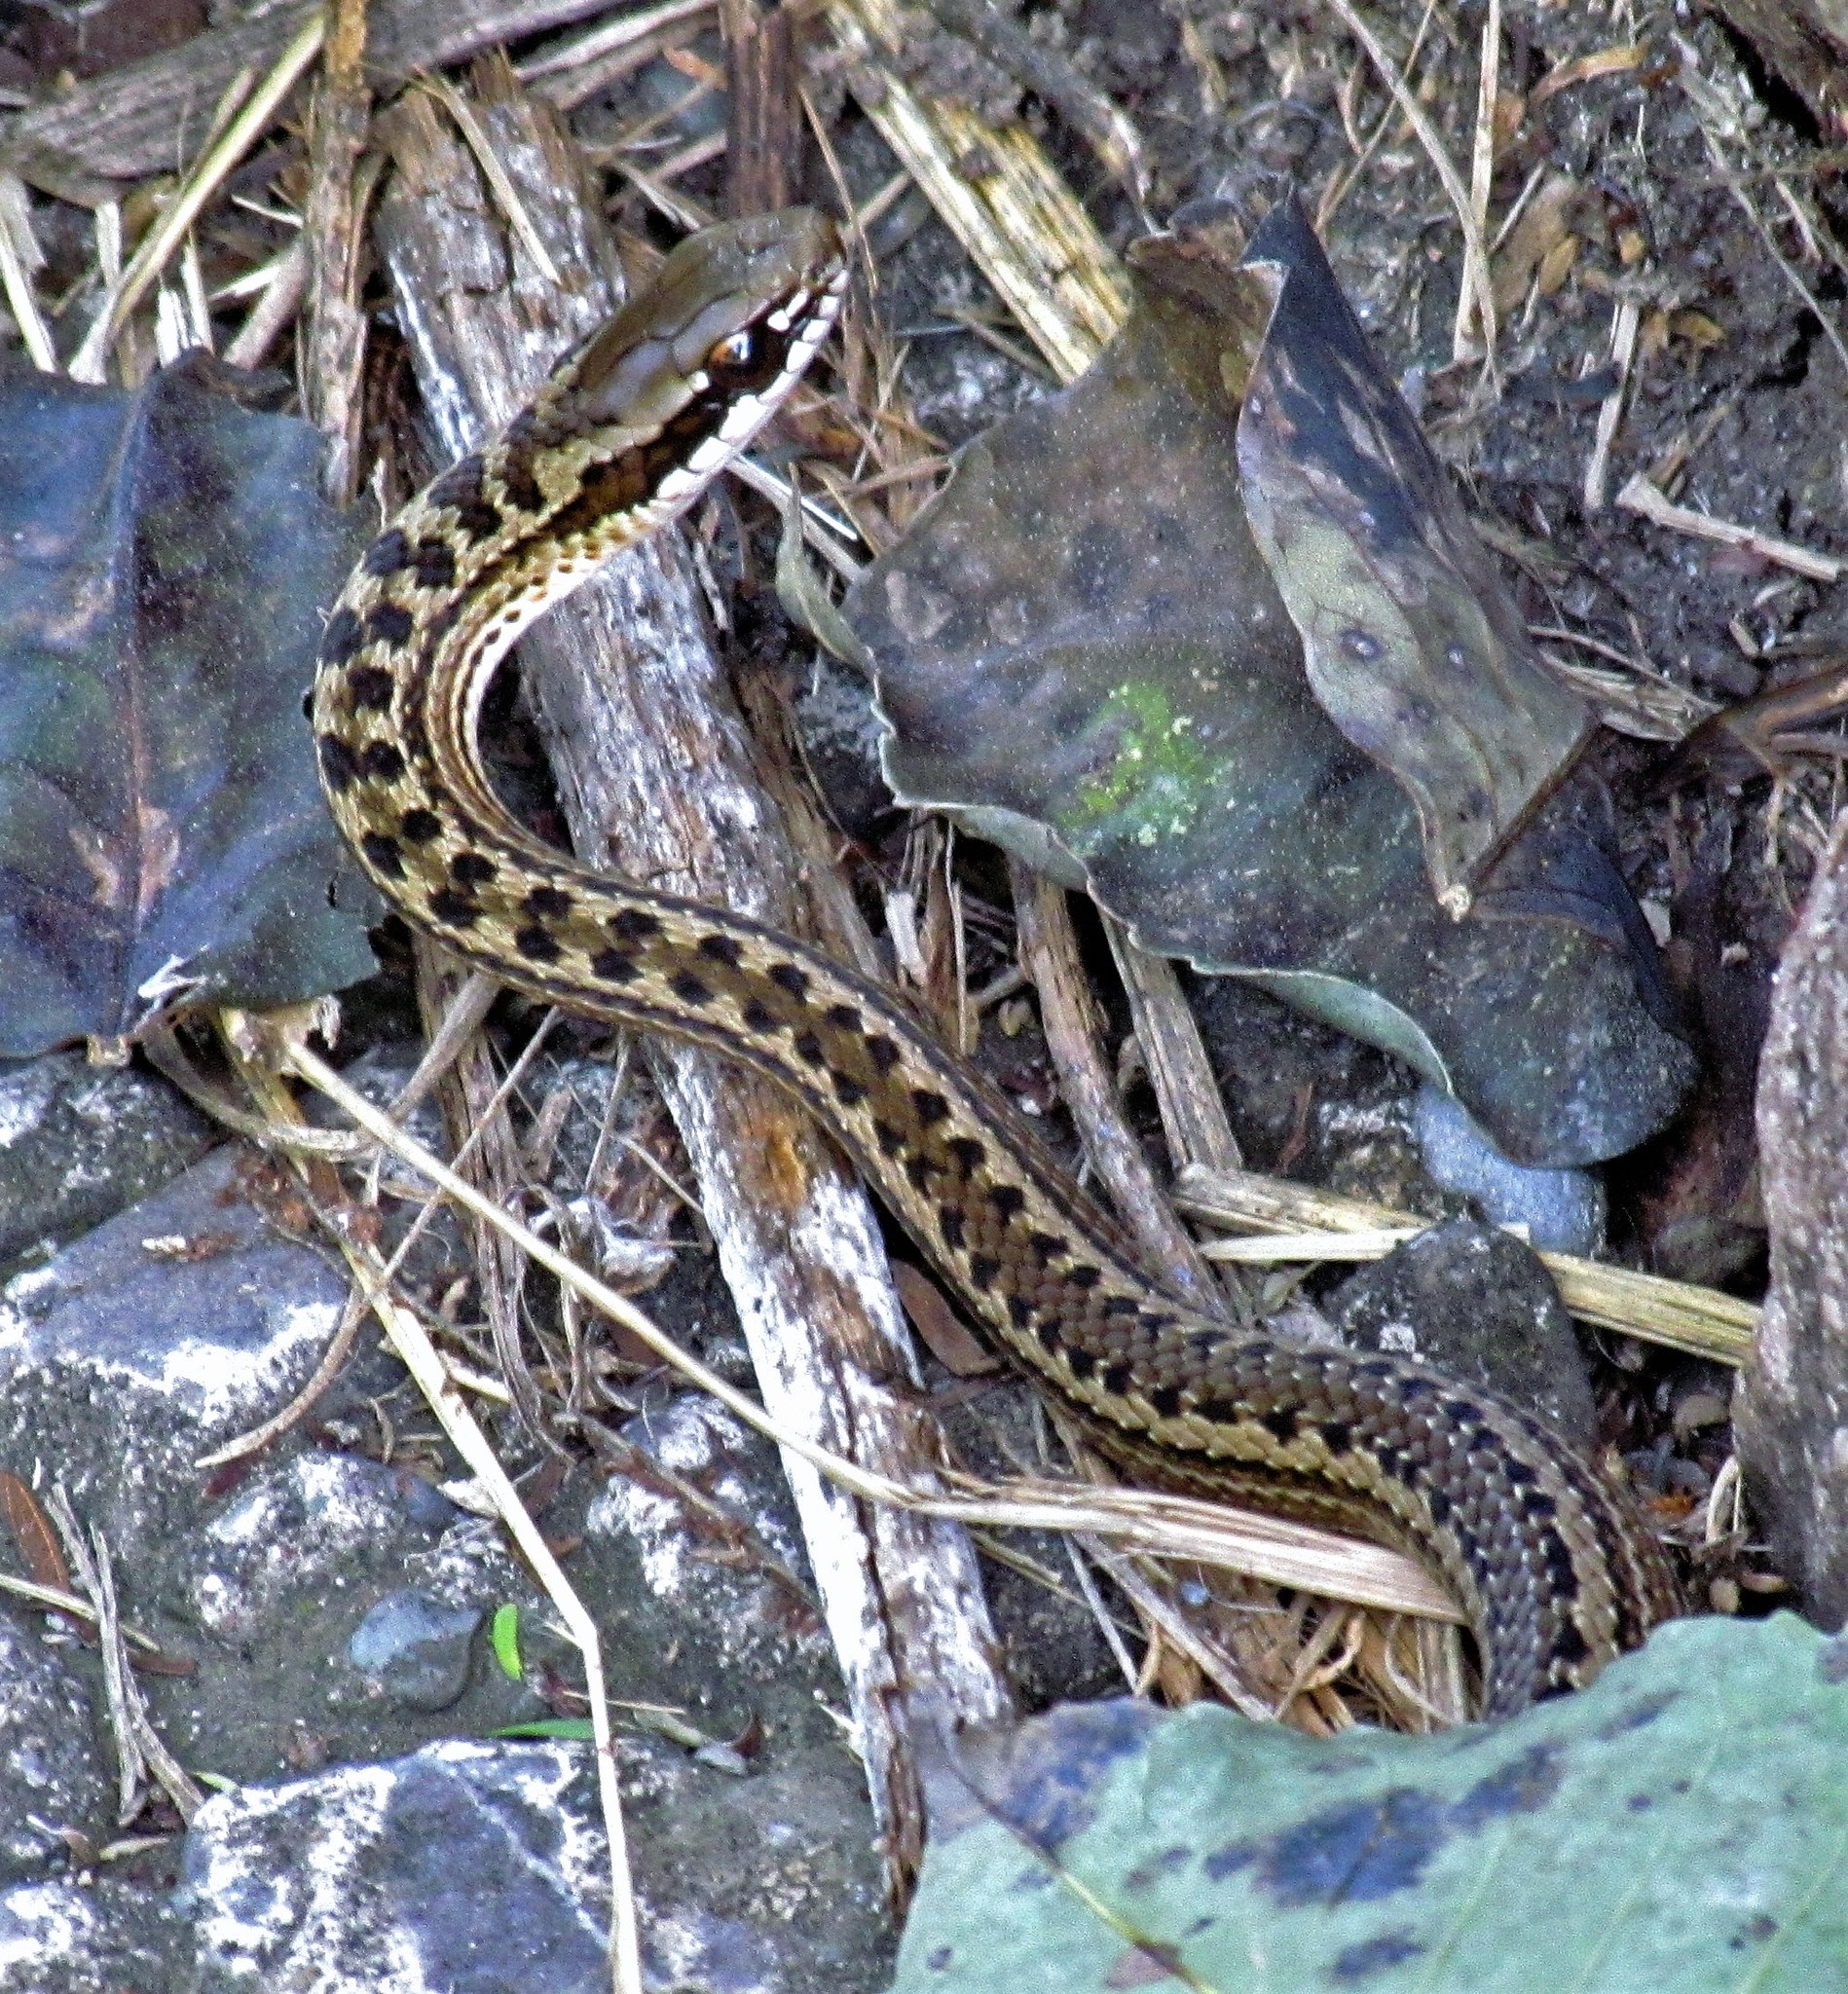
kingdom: Animalia
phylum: Chordata
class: Squamata
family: Colubridae
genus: Philodryas
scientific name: Philodryas psammophidea
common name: Günther's green racer
